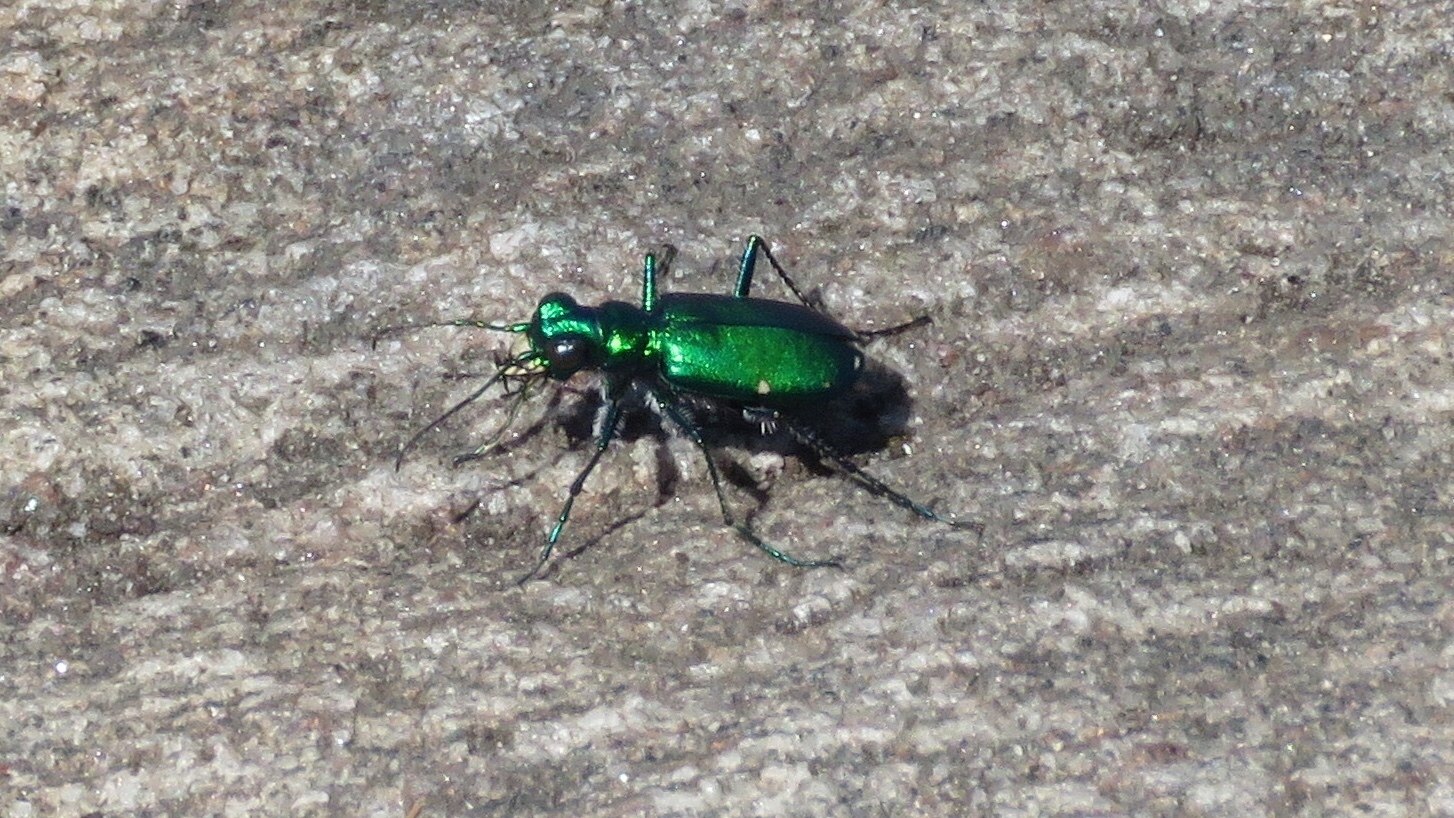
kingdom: Animalia
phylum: Arthropoda
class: Insecta
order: Coleoptera
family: Carabidae
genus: Cicindela
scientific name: Cicindela sexguttata
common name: Six-spotted tiger beetle
